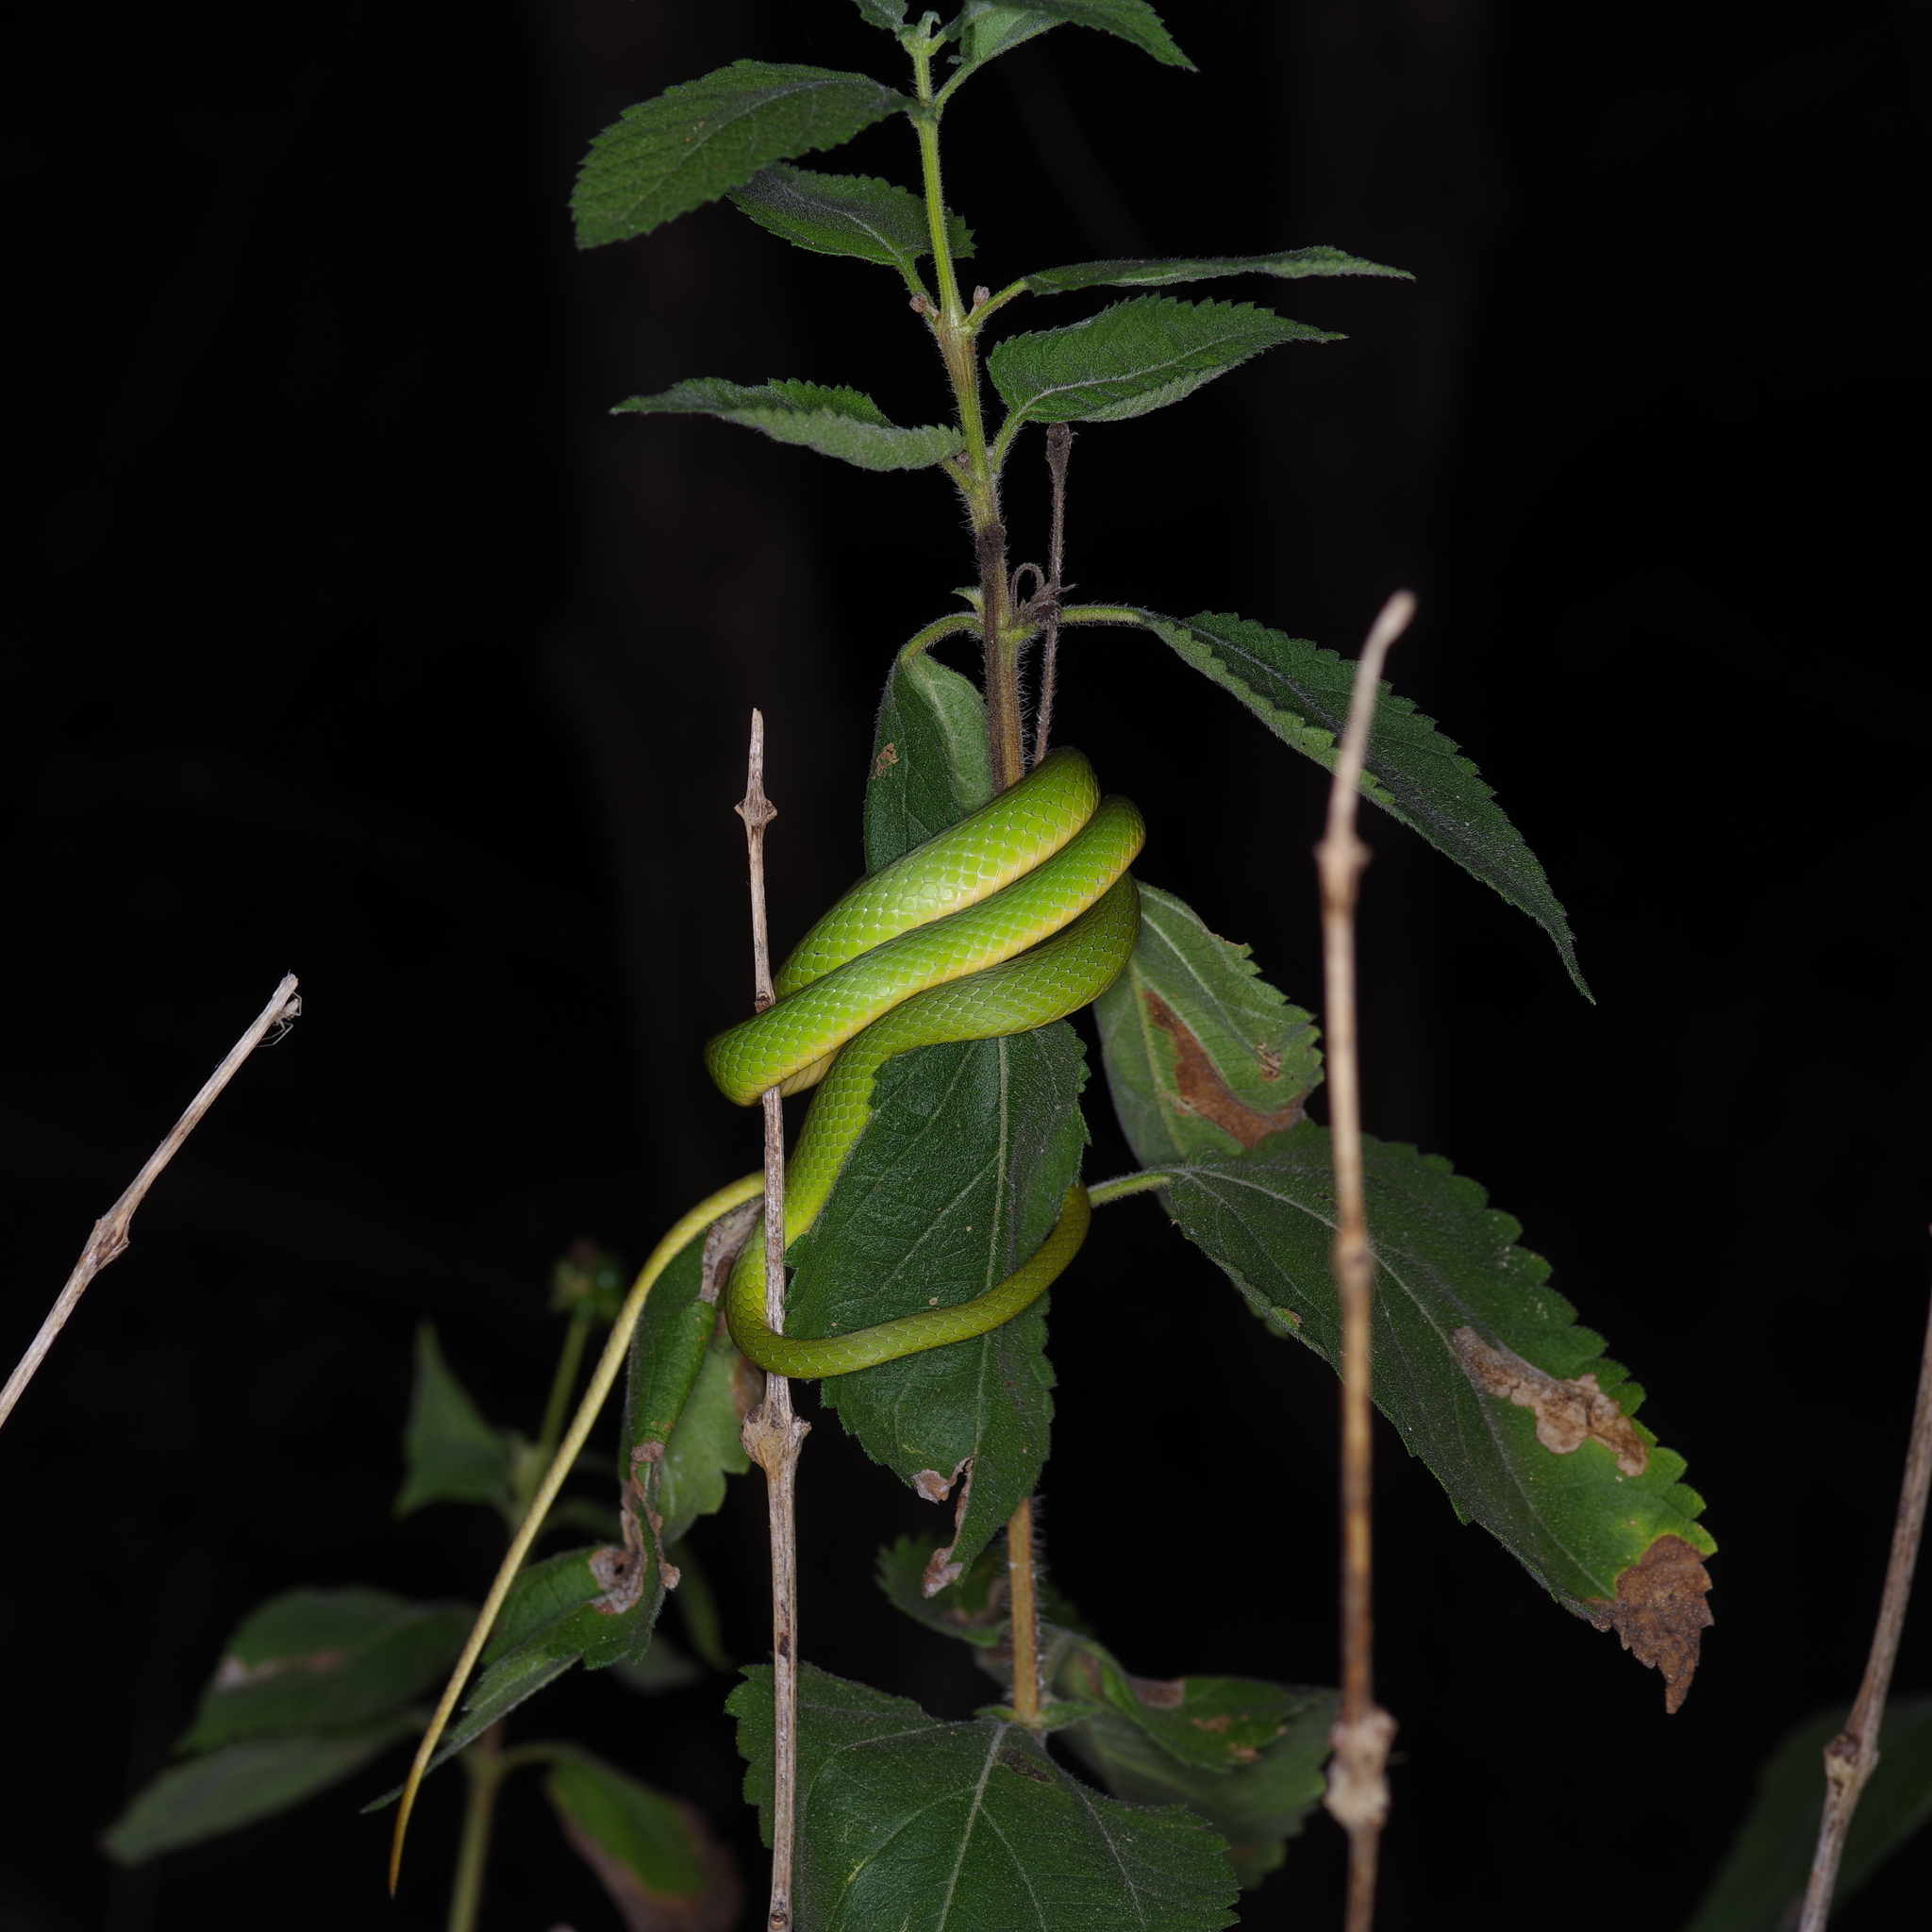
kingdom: Animalia
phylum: Chordata
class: Squamata
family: Colubridae
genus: Opheodrys
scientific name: Opheodrys aestivus
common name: Rough greensnake
